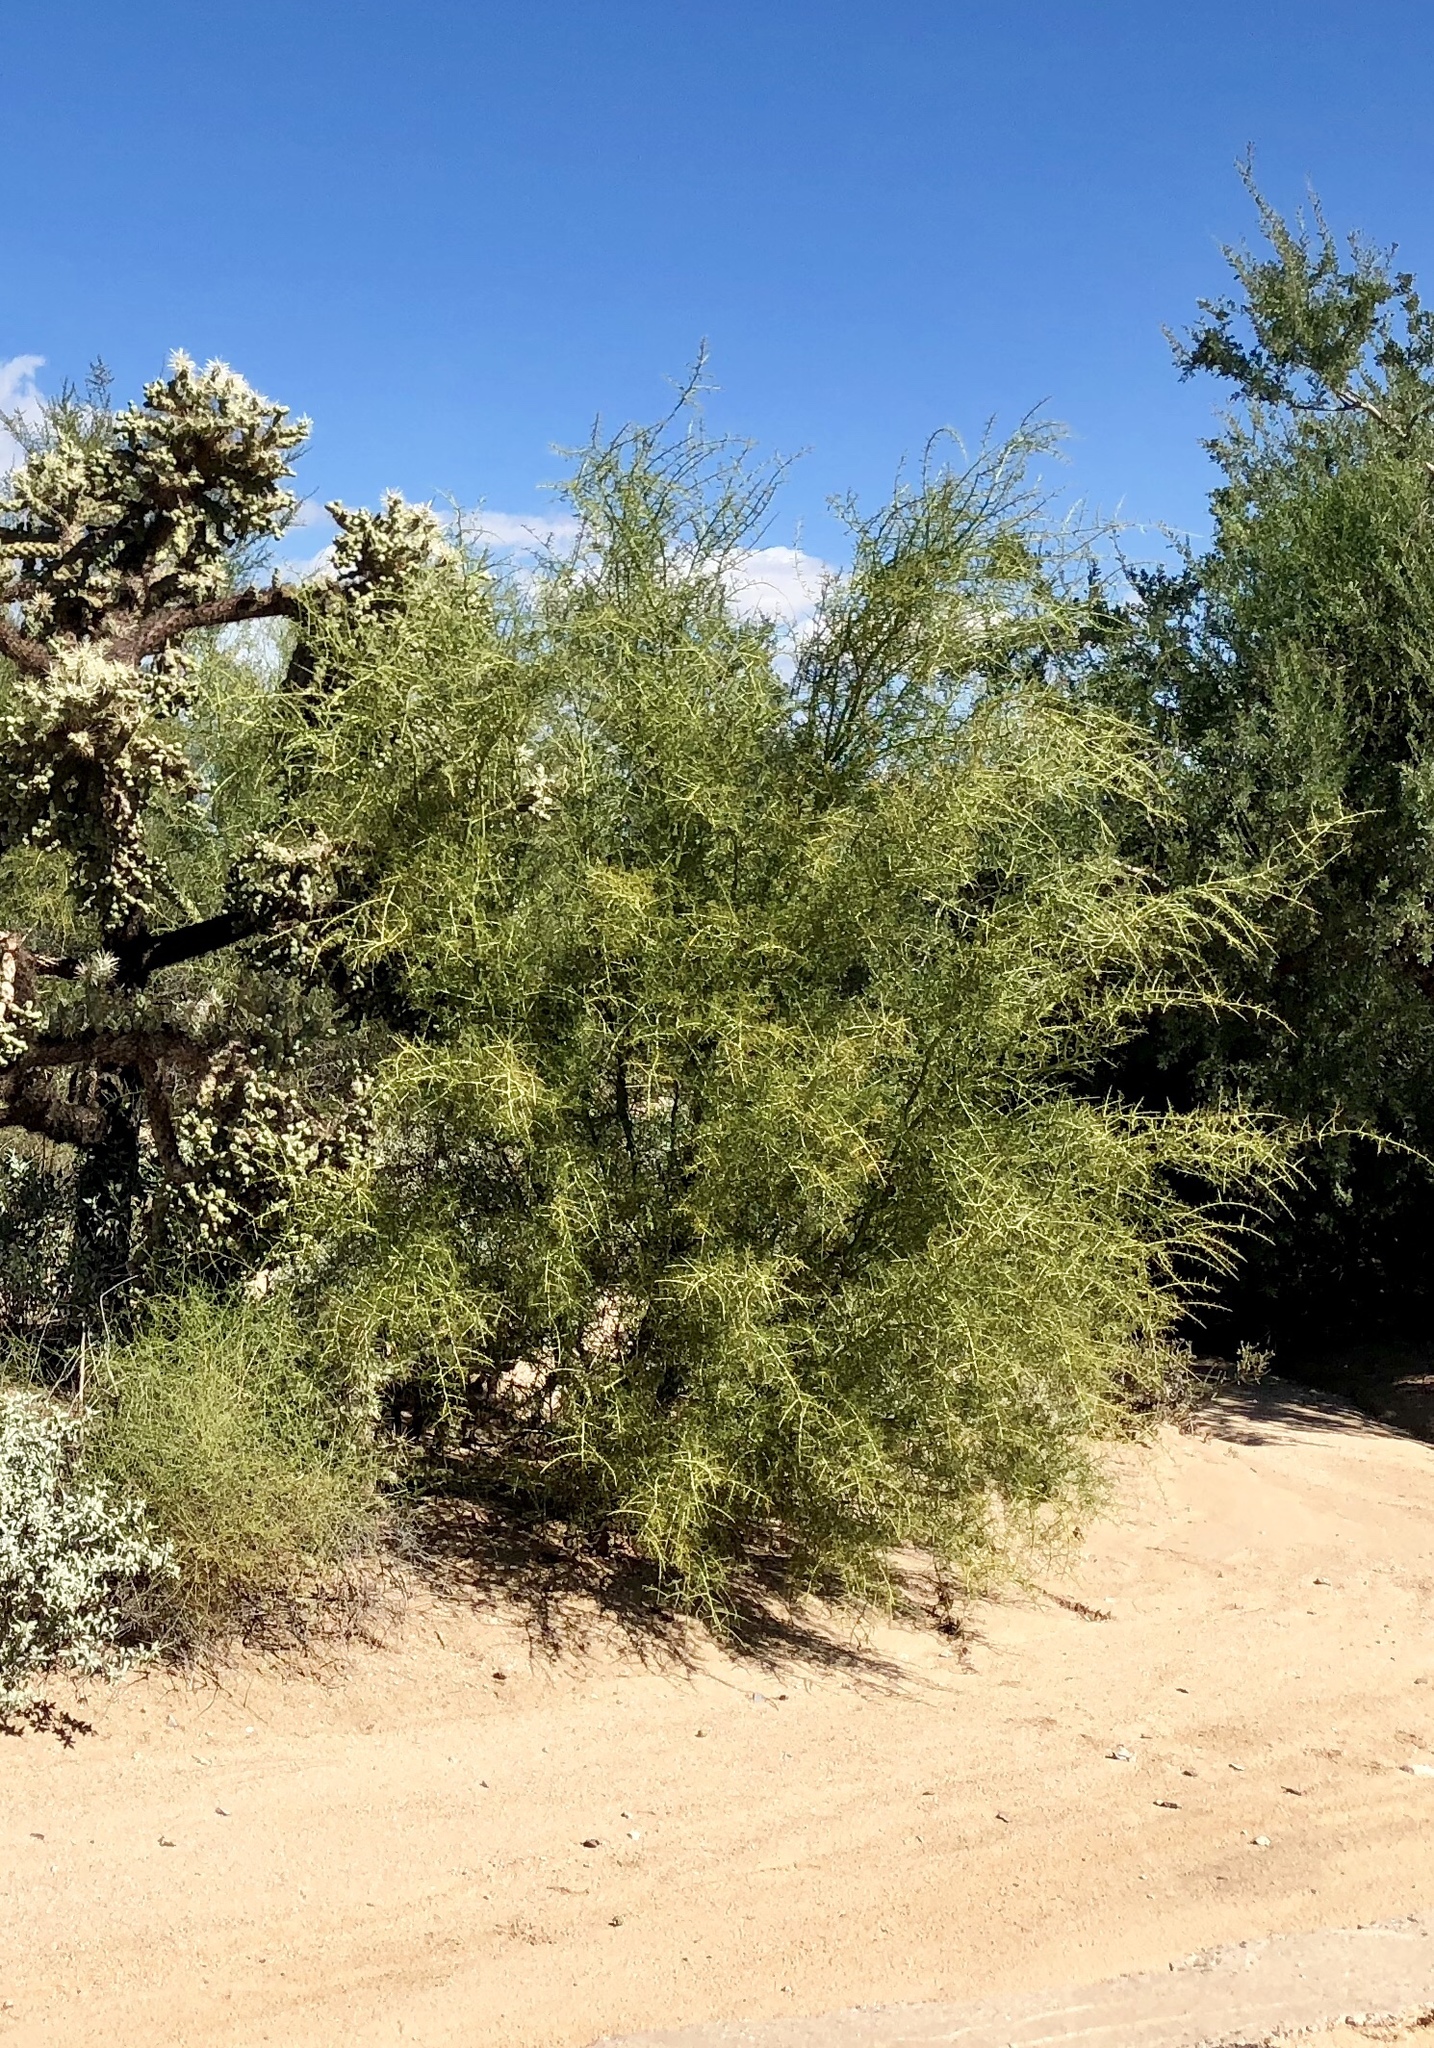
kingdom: Plantae
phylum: Tracheophyta
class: Magnoliopsida
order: Fabales
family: Fabaceae
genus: Parkinsonia
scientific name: Parkinsonia microphylla
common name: Yellow paloverde
